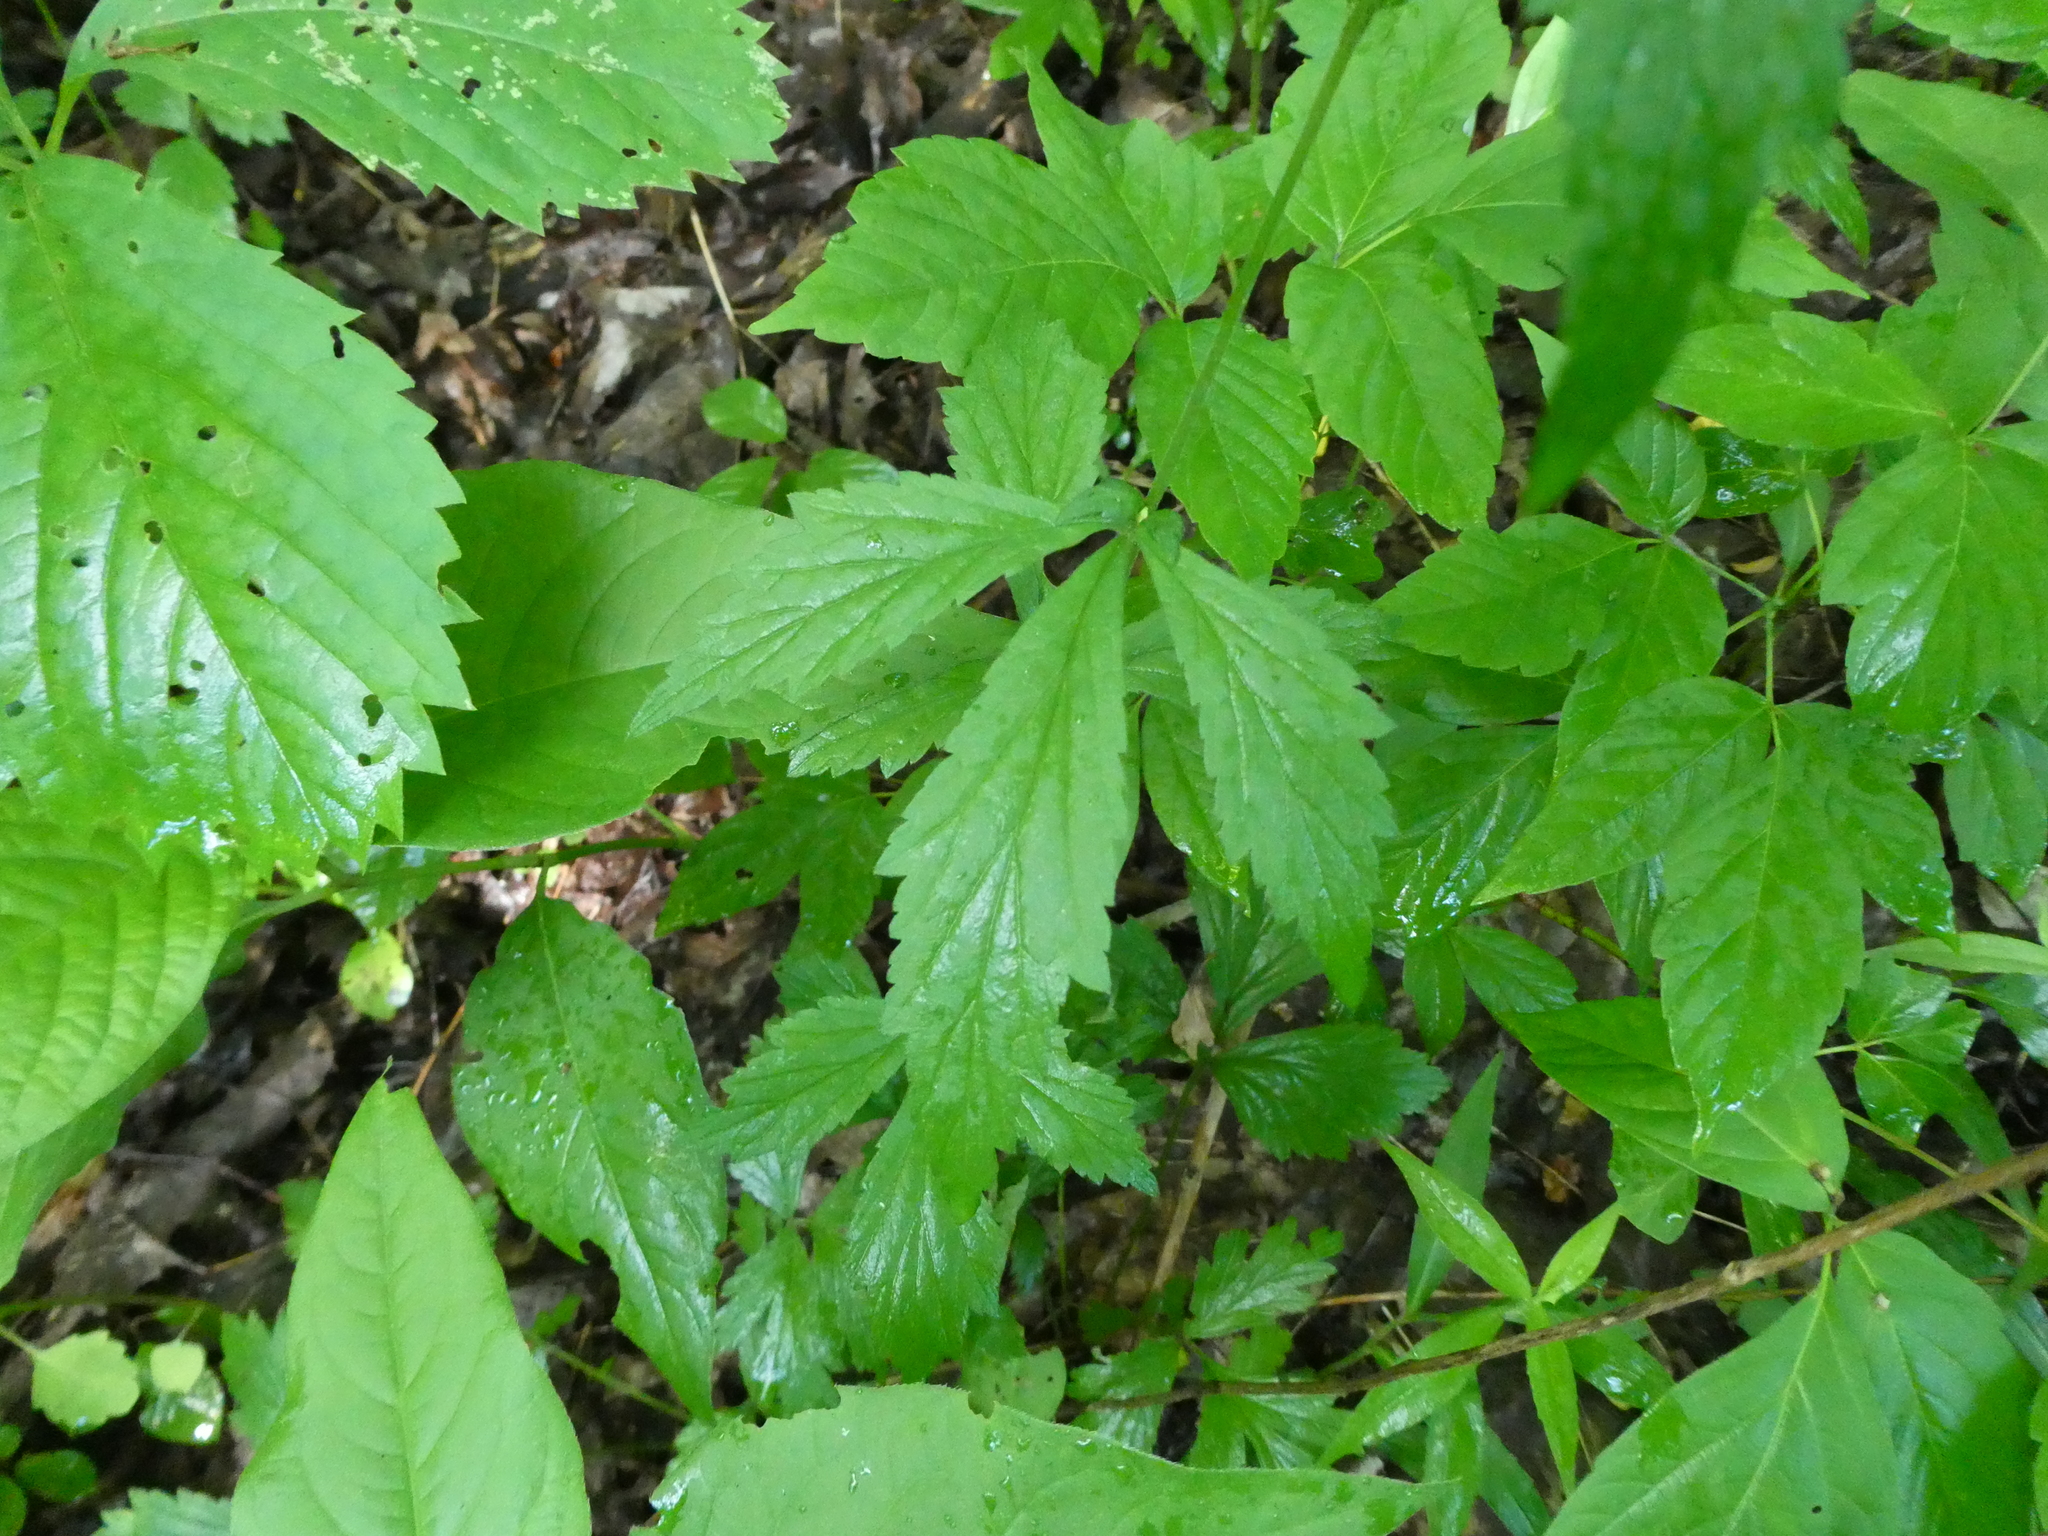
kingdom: Plantae
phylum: Tracheophyta
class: Magnoliopsida
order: Rosales
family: Rosaceae
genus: Geum
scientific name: Geum canadense
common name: White avens
